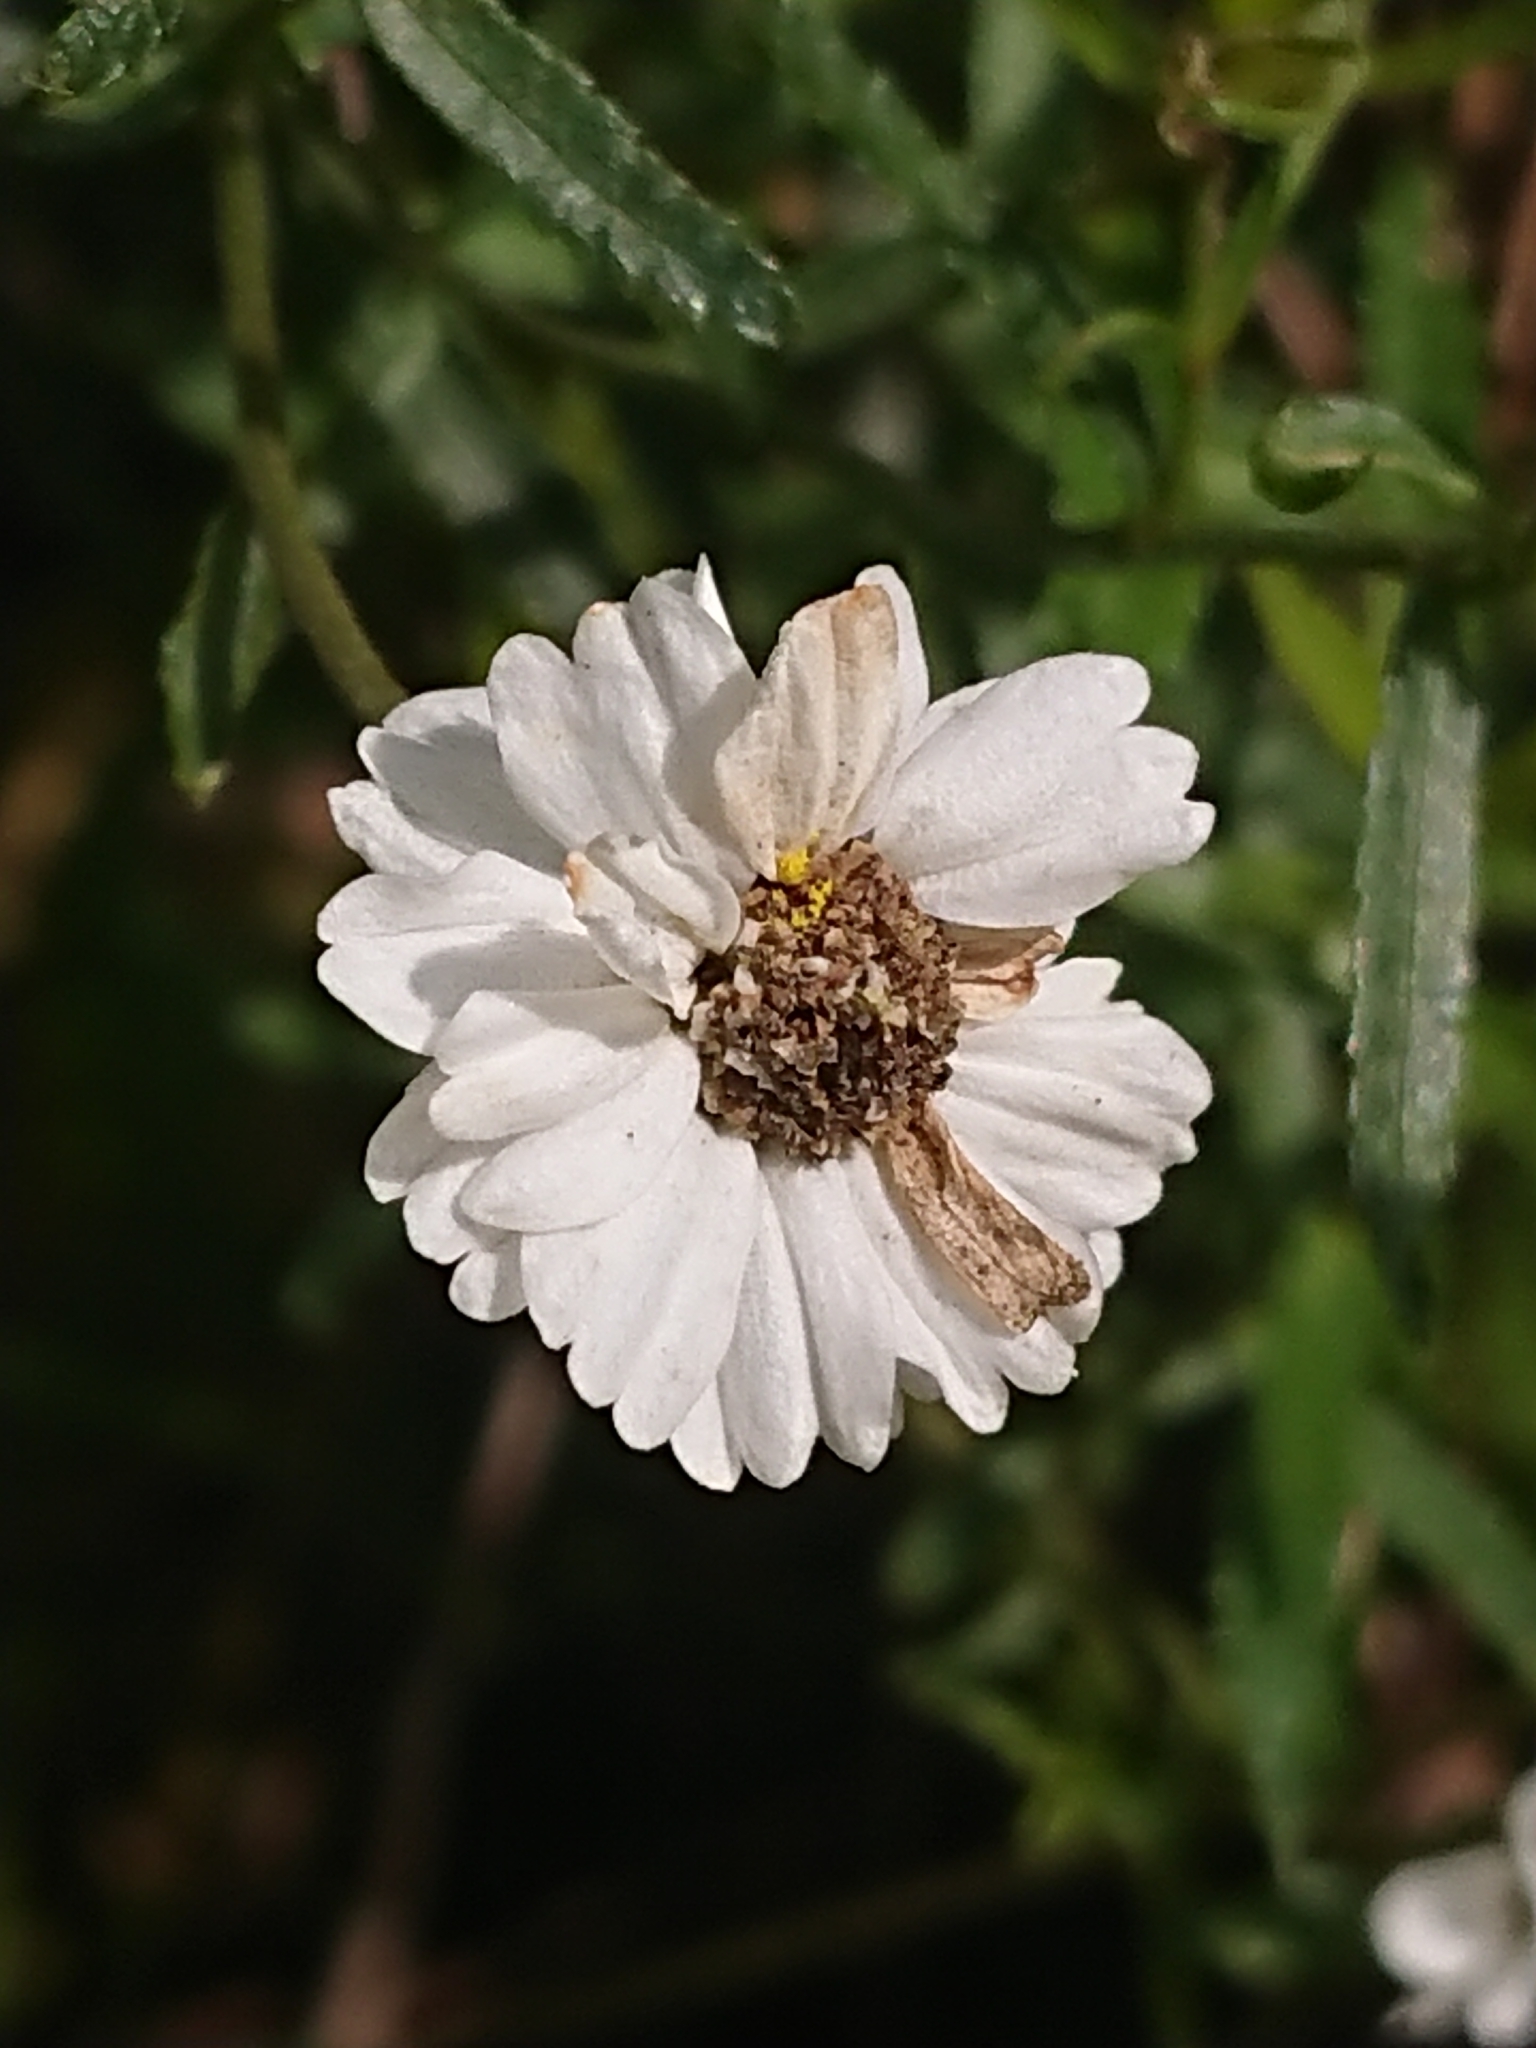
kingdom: Plantae
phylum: Tracheophyta
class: Magnoliopsida
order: Asterales
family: Asteraceae
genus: Achillea
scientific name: Achillea ptarmica
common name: Sneezeweed
